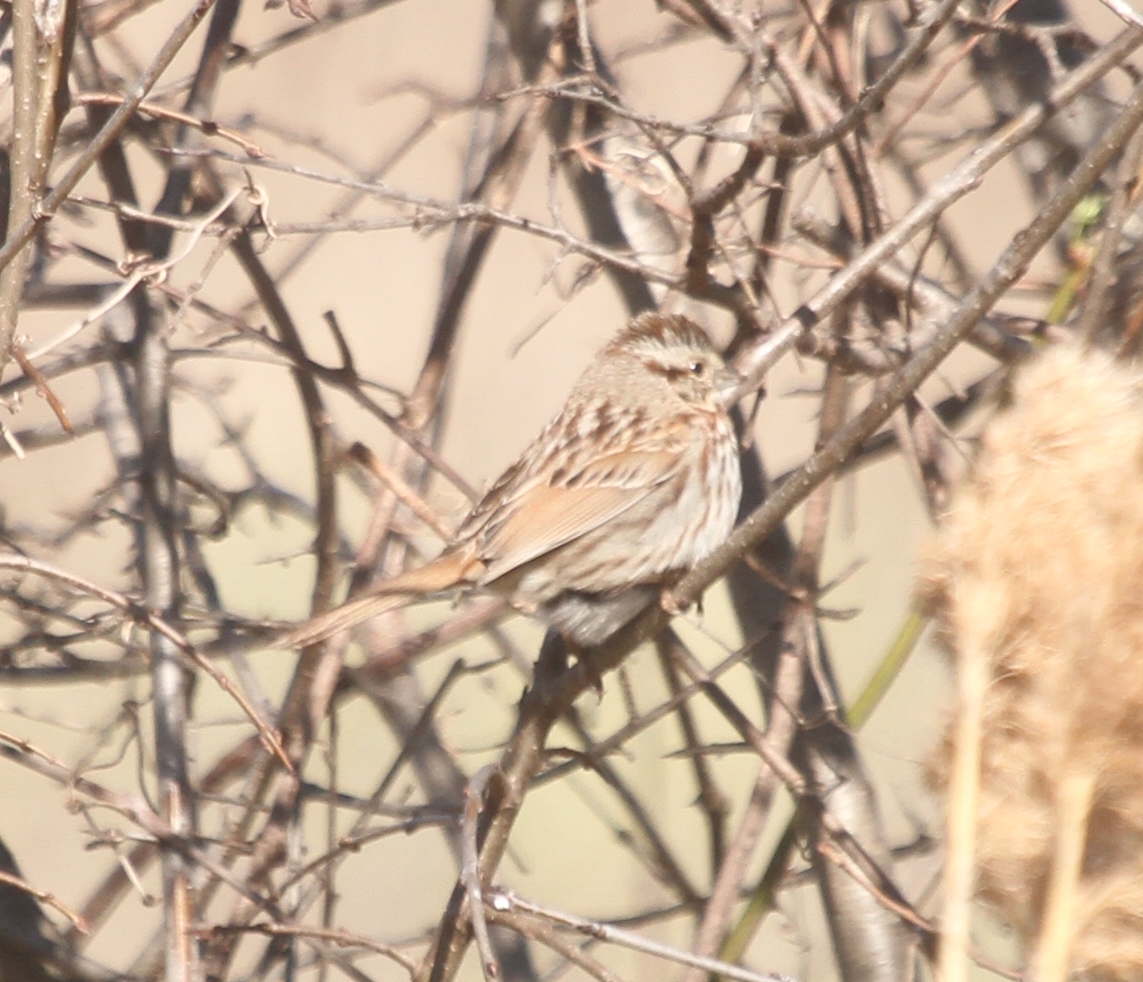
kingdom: Animalia
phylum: Chordata
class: Aves
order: Passeriformes
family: Passerellidae
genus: Melospiza
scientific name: Melospiza melodia
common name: Song sparrow
